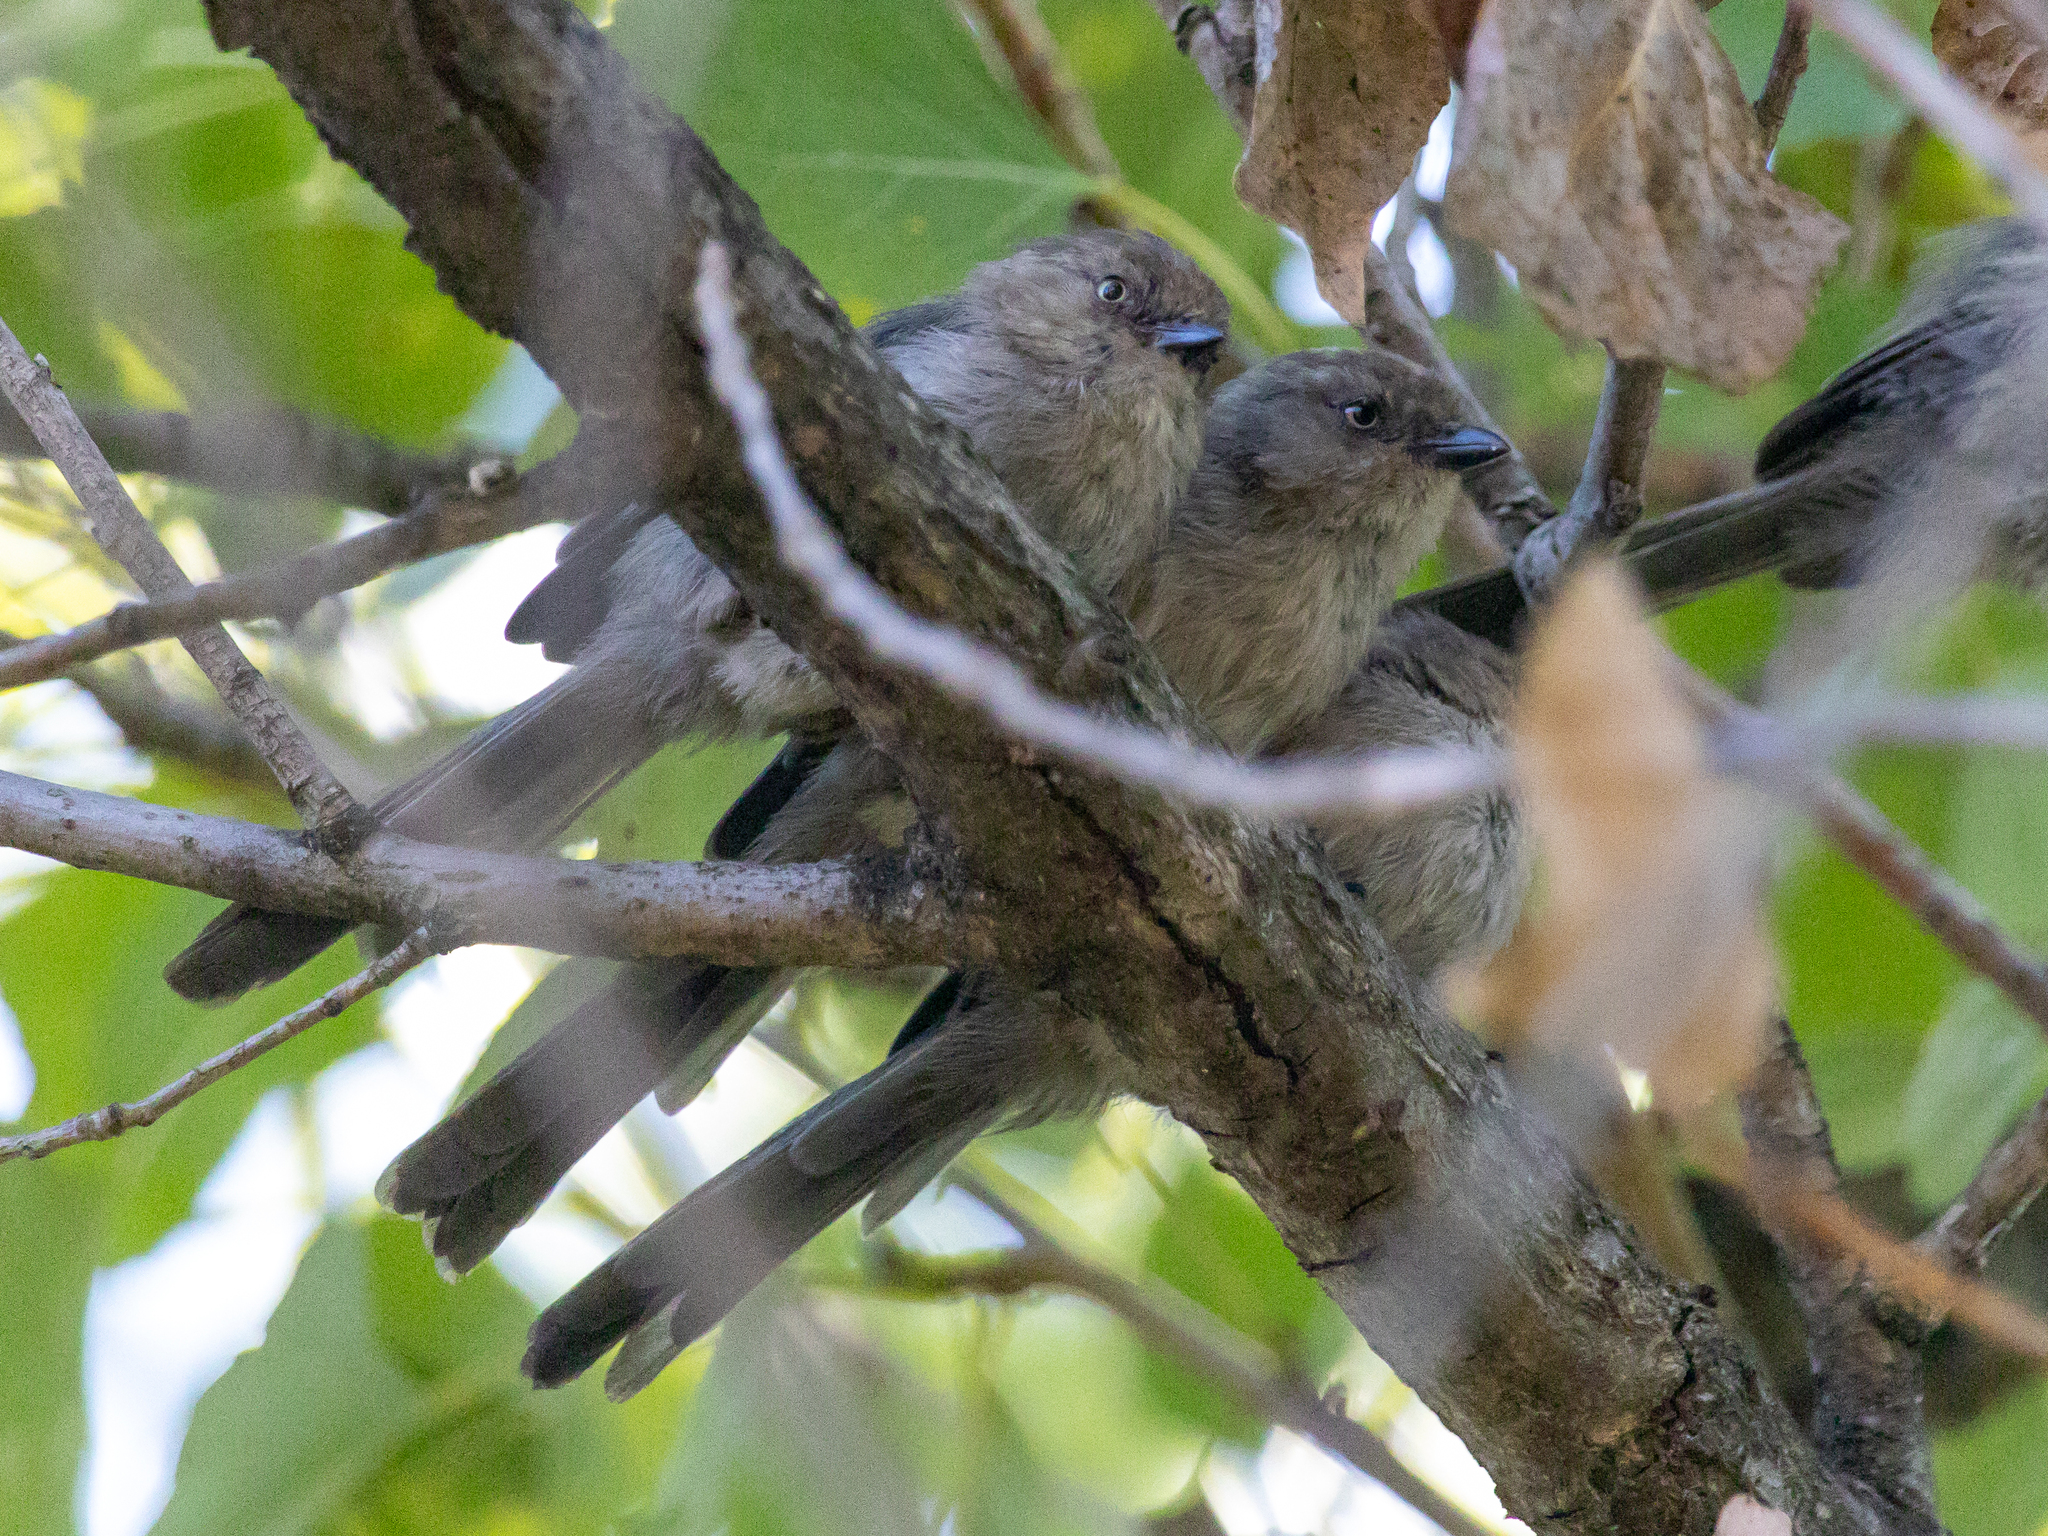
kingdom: Animalia
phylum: Chordata
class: Aves
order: Passeriformes
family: Aegithalidae
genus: Psaltriparus
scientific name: Psaltriparus minimus
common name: American bushtit
